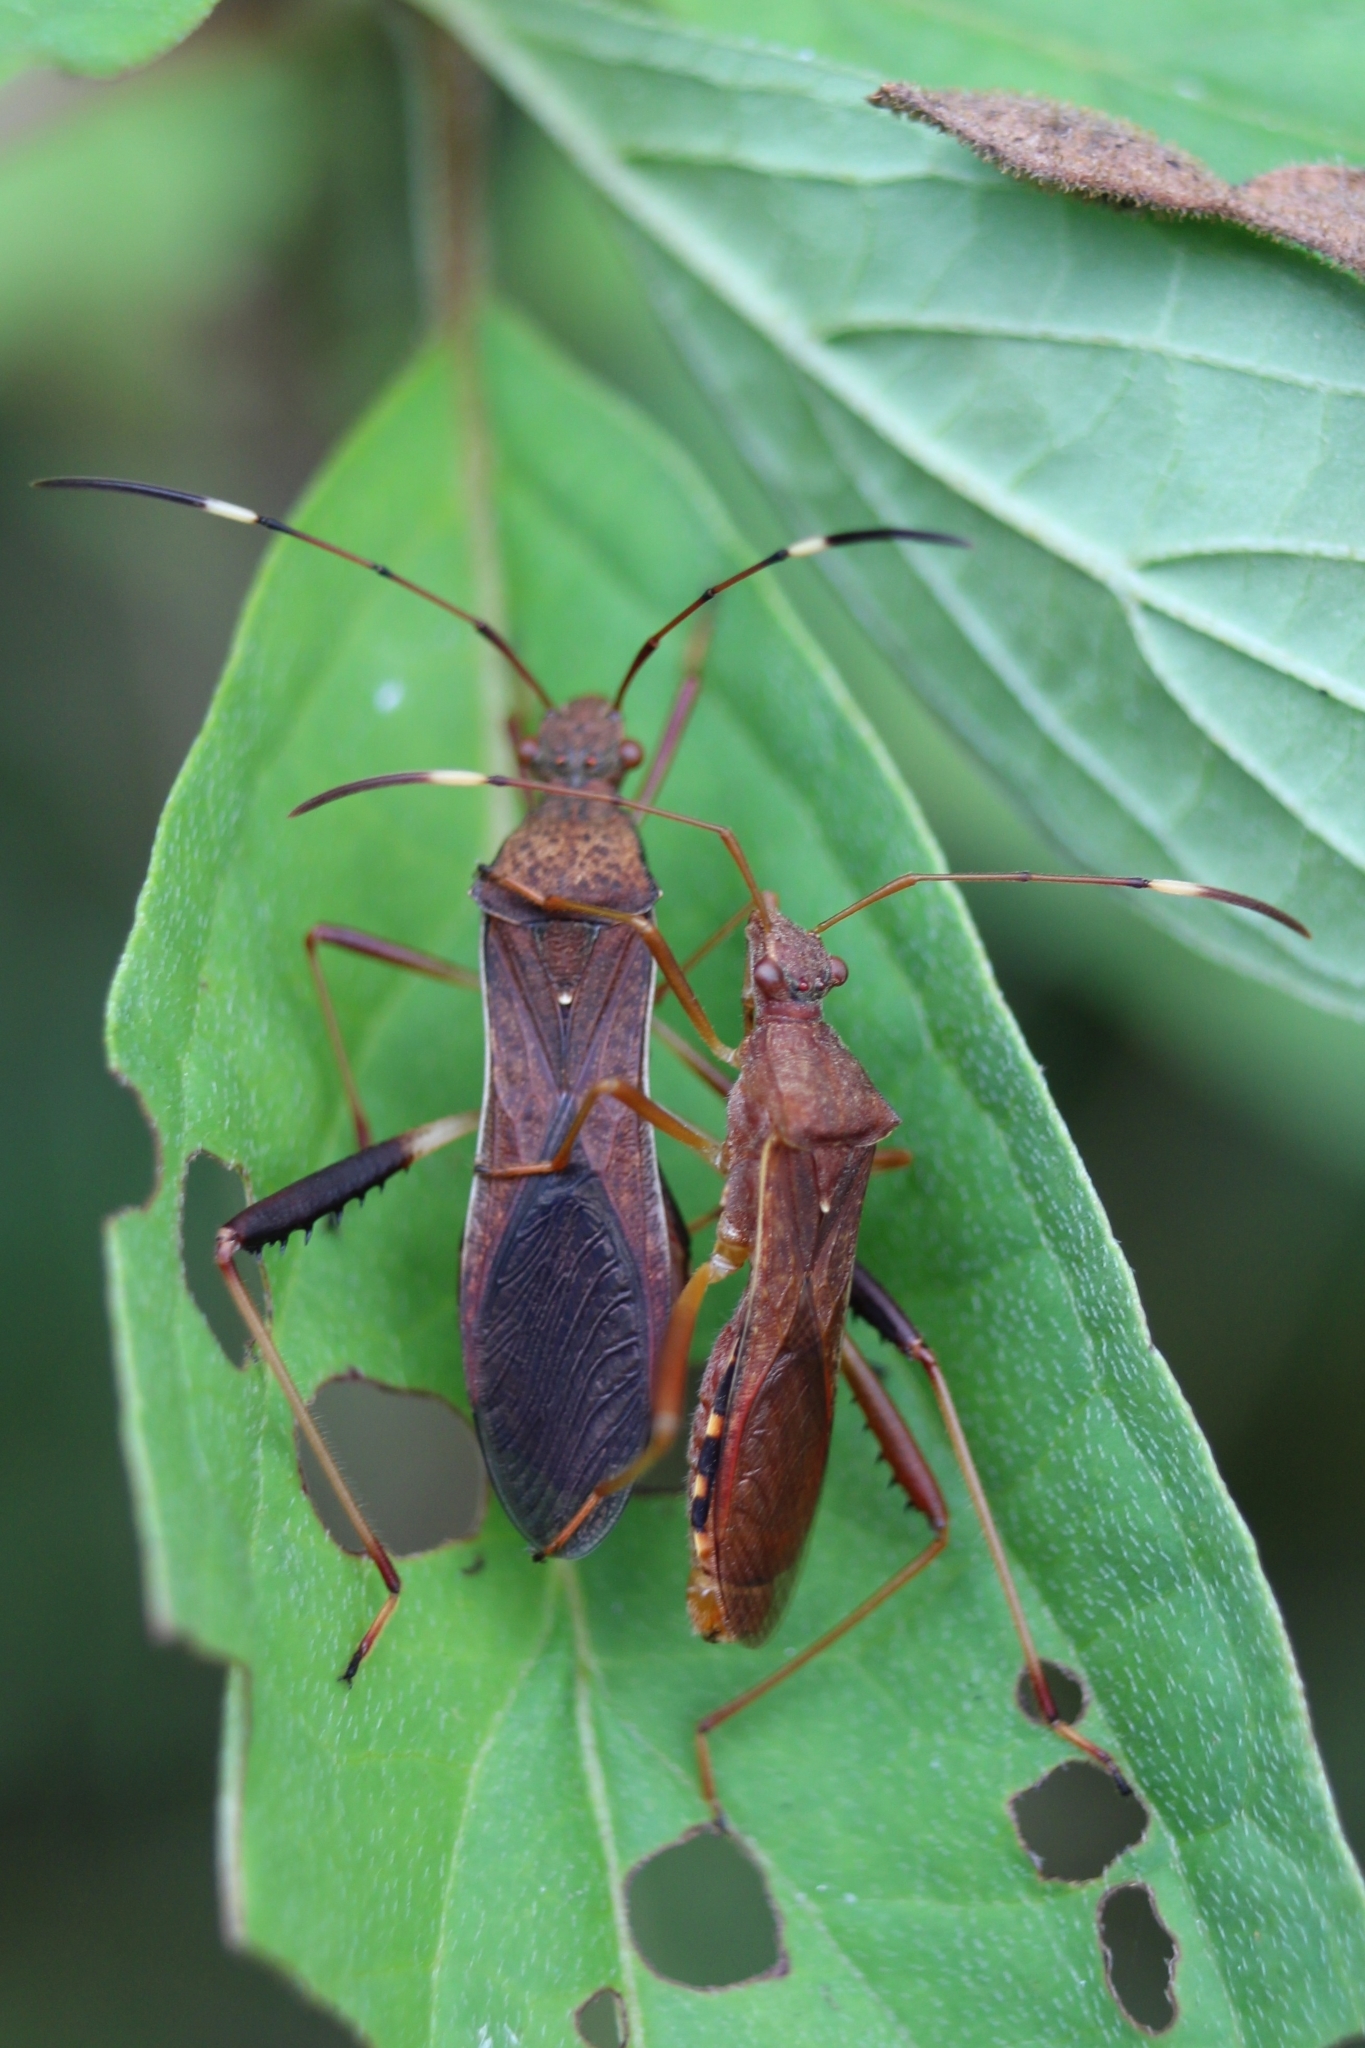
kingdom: Animalia
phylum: Arthropoda
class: Insecta
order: Hemiptera
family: Alydidae
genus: Megalotomus
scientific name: Megalotomus quinquespinosus
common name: Lupine bug
